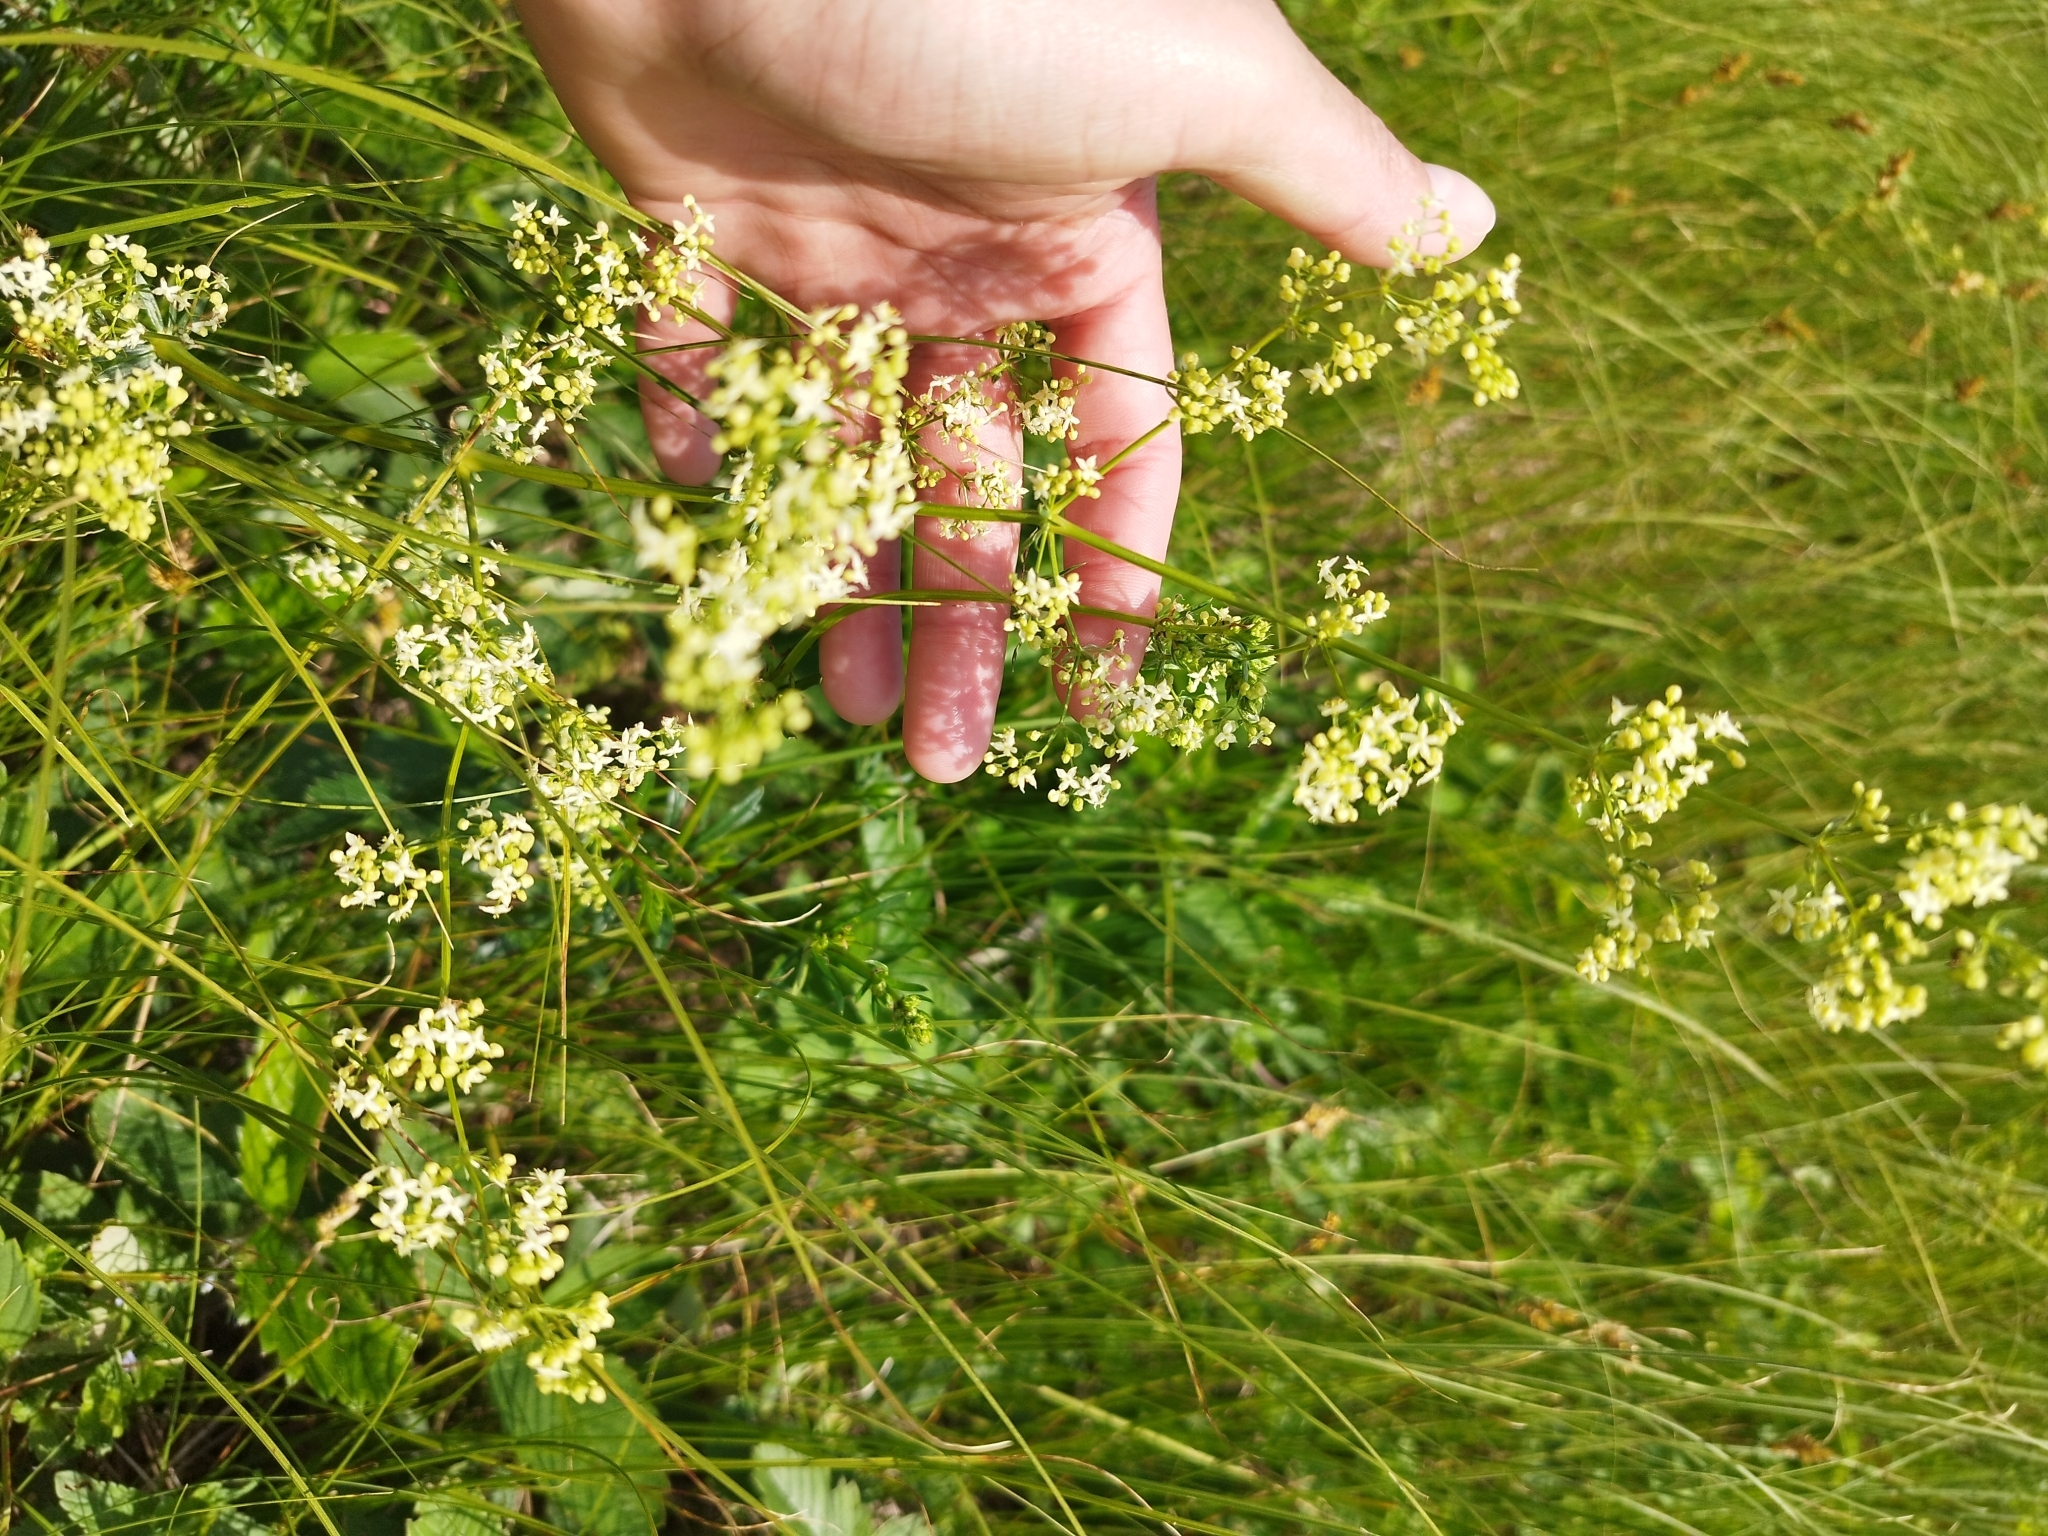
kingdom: Plantae
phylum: Tracheophyta
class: Magnoliopsida
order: Gentianales
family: Rubiaceae
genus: Galium
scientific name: Galium mollugo
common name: Hedge bedstraw
